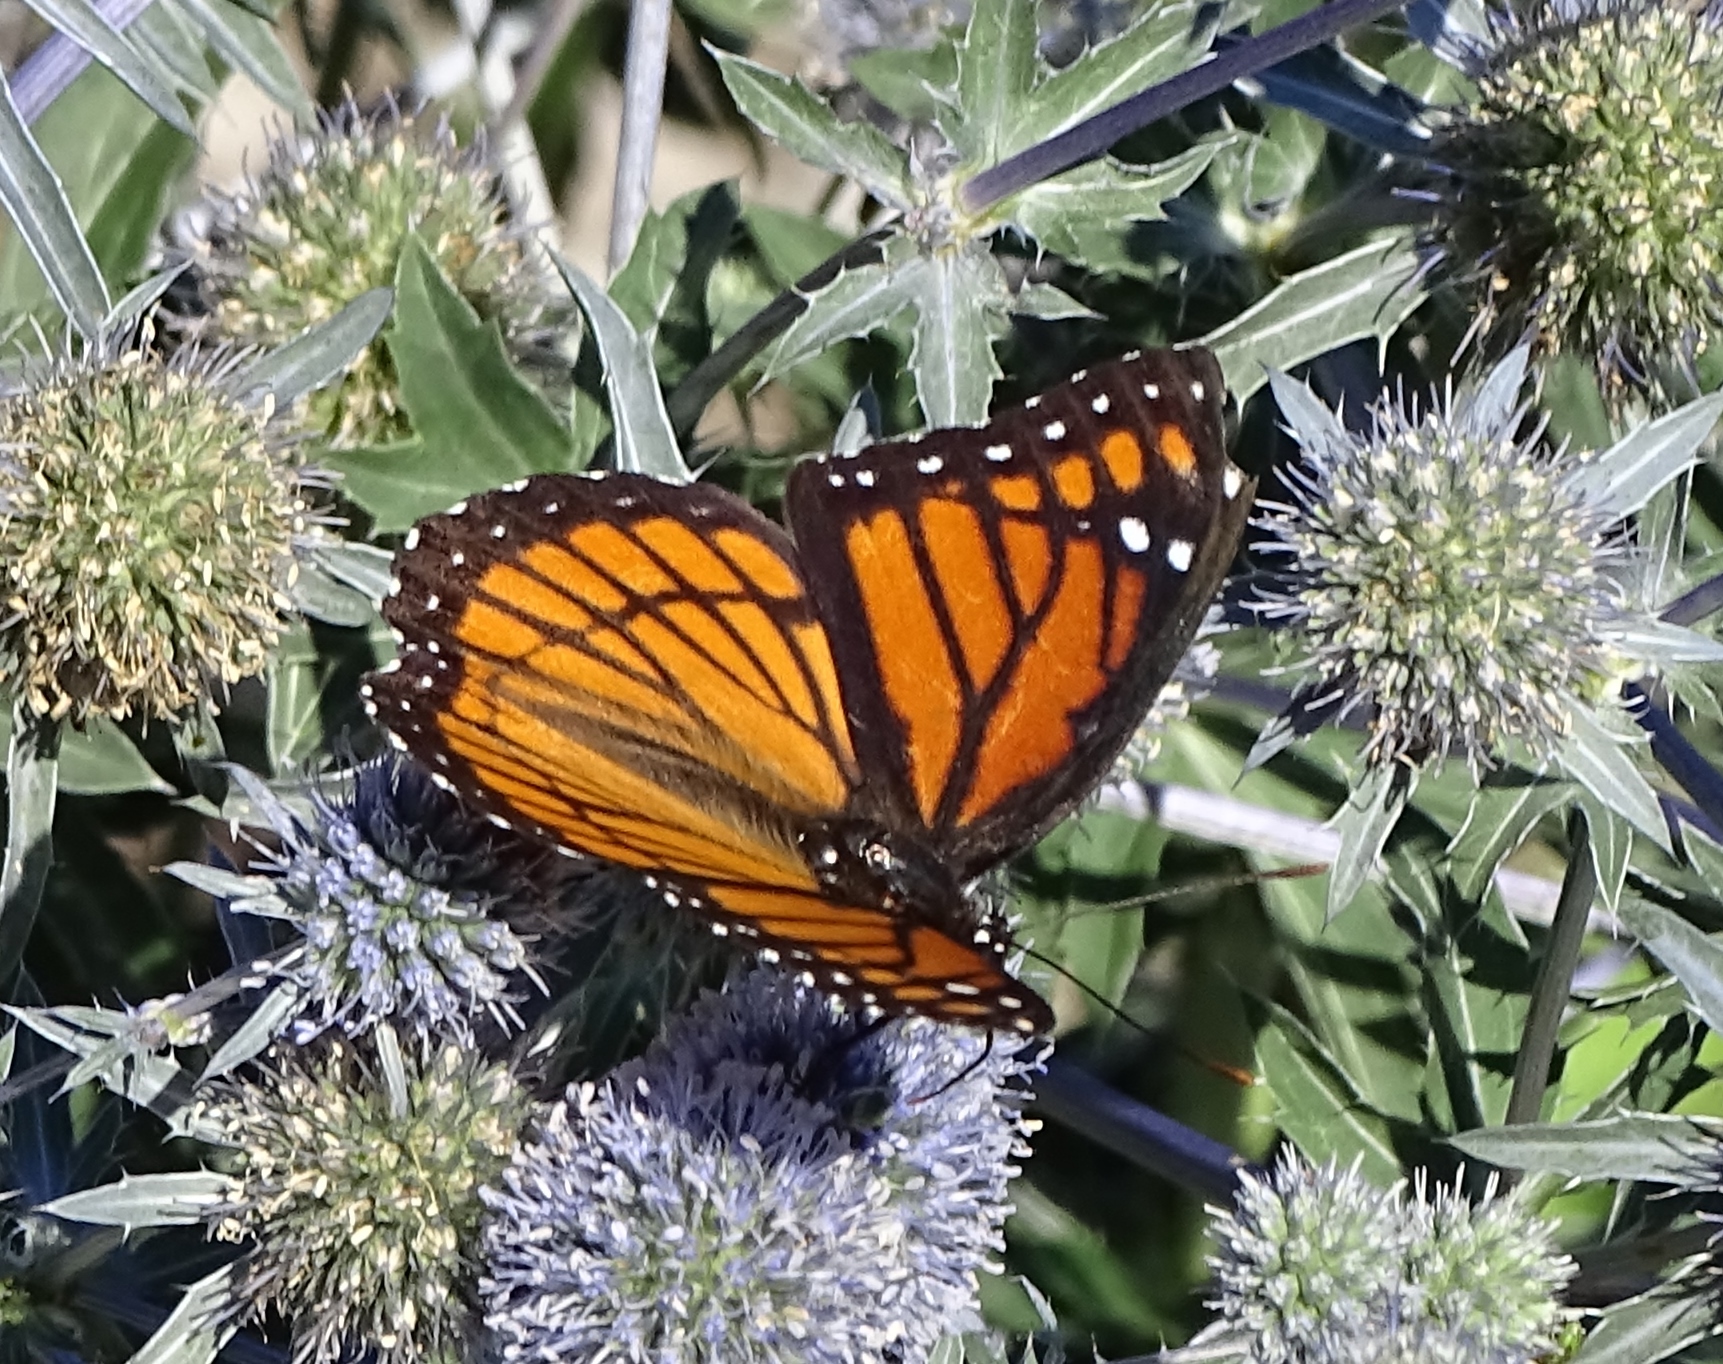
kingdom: Animalia
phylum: Arthropoda
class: Insecta
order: Lepidoptera
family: Nymphalidae
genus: Limenitis
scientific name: Limenitis archippus
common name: Viceroy
